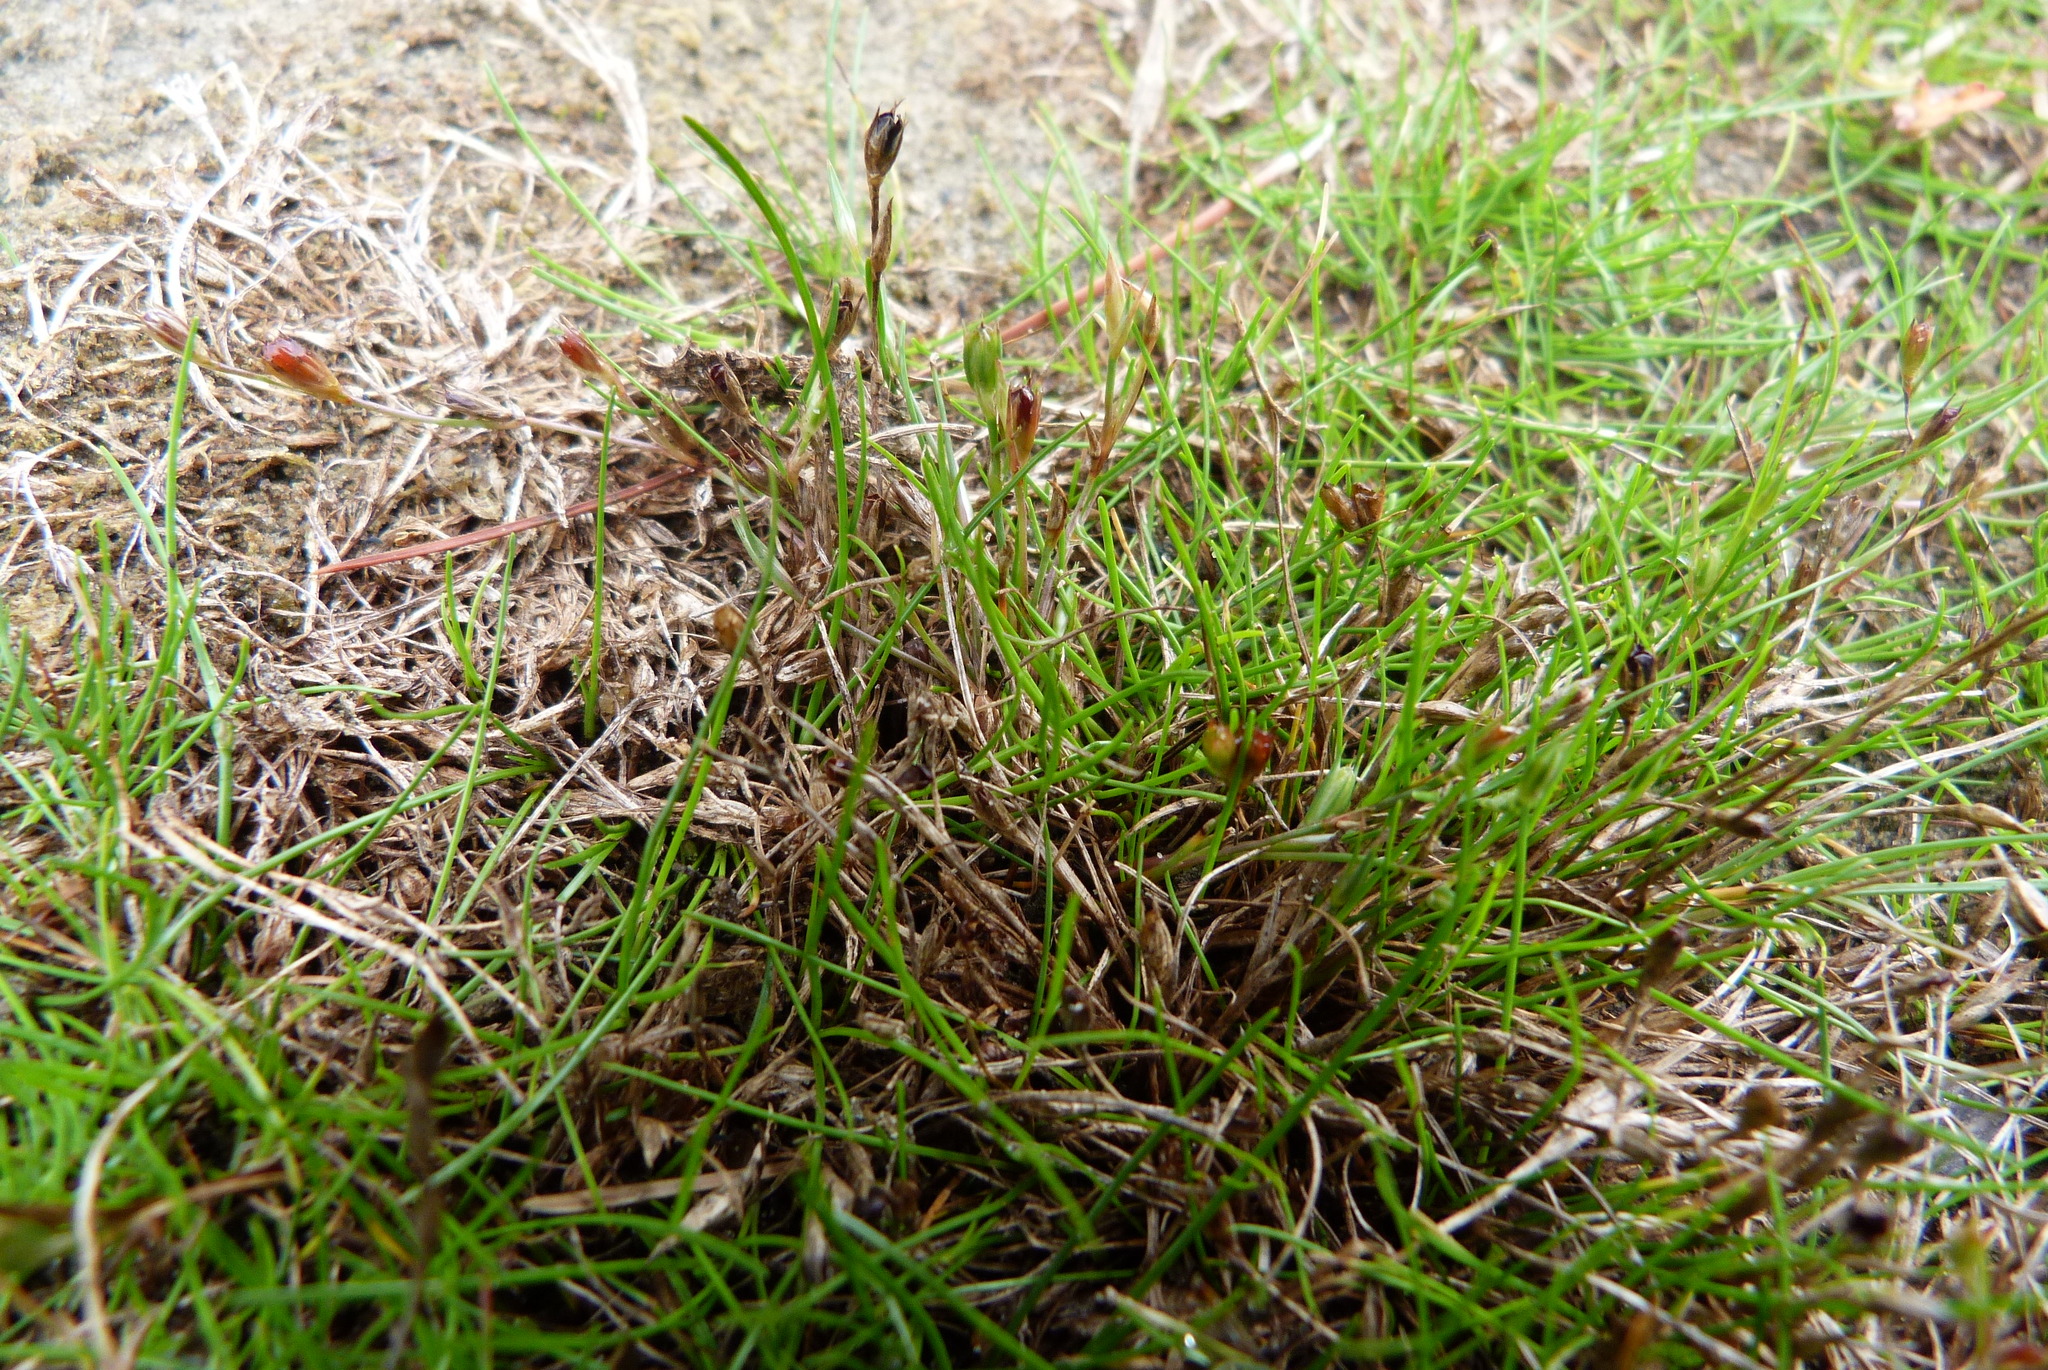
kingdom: Plantae
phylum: Tracheophyta
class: Liliopsida
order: Poales
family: Juncaceae
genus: Juncus
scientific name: Juncus bufonius
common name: Toad rush
